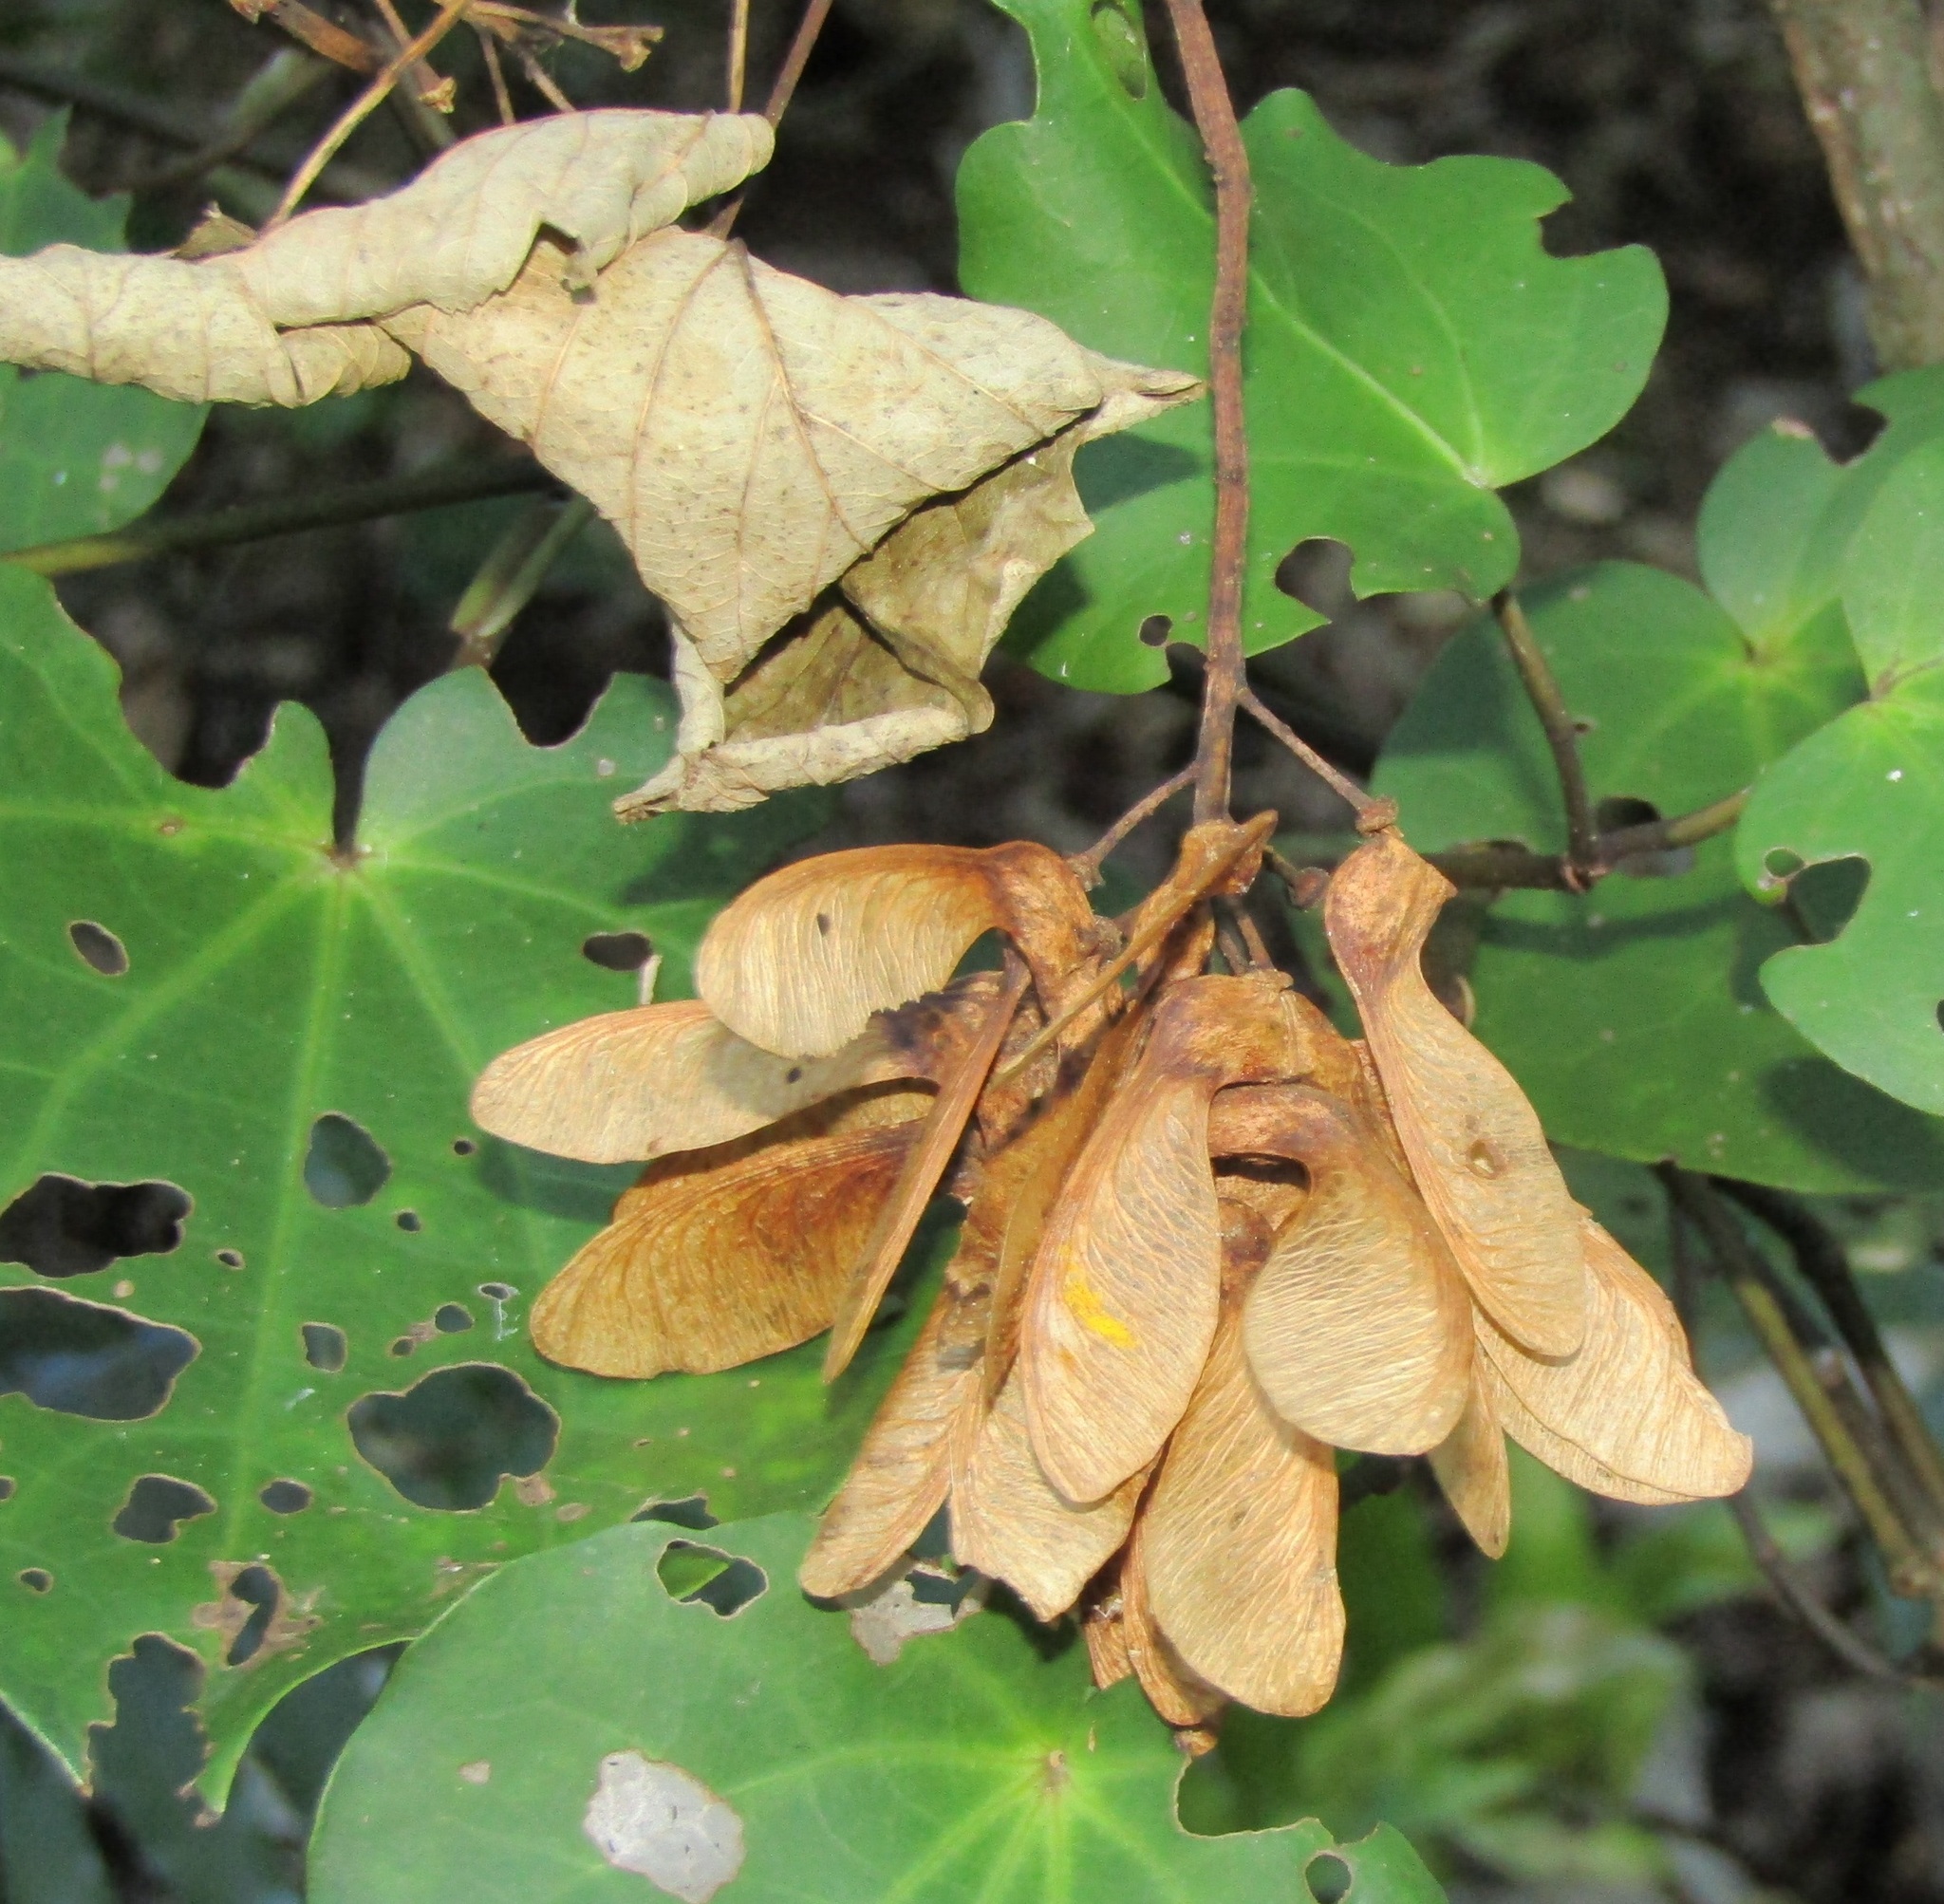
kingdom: Plantae
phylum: Tracheophyta
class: Magnoliopsida
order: Sapindales
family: Sapindaceae
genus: Acer
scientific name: Acer pseudoplatanus
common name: Sycamore
